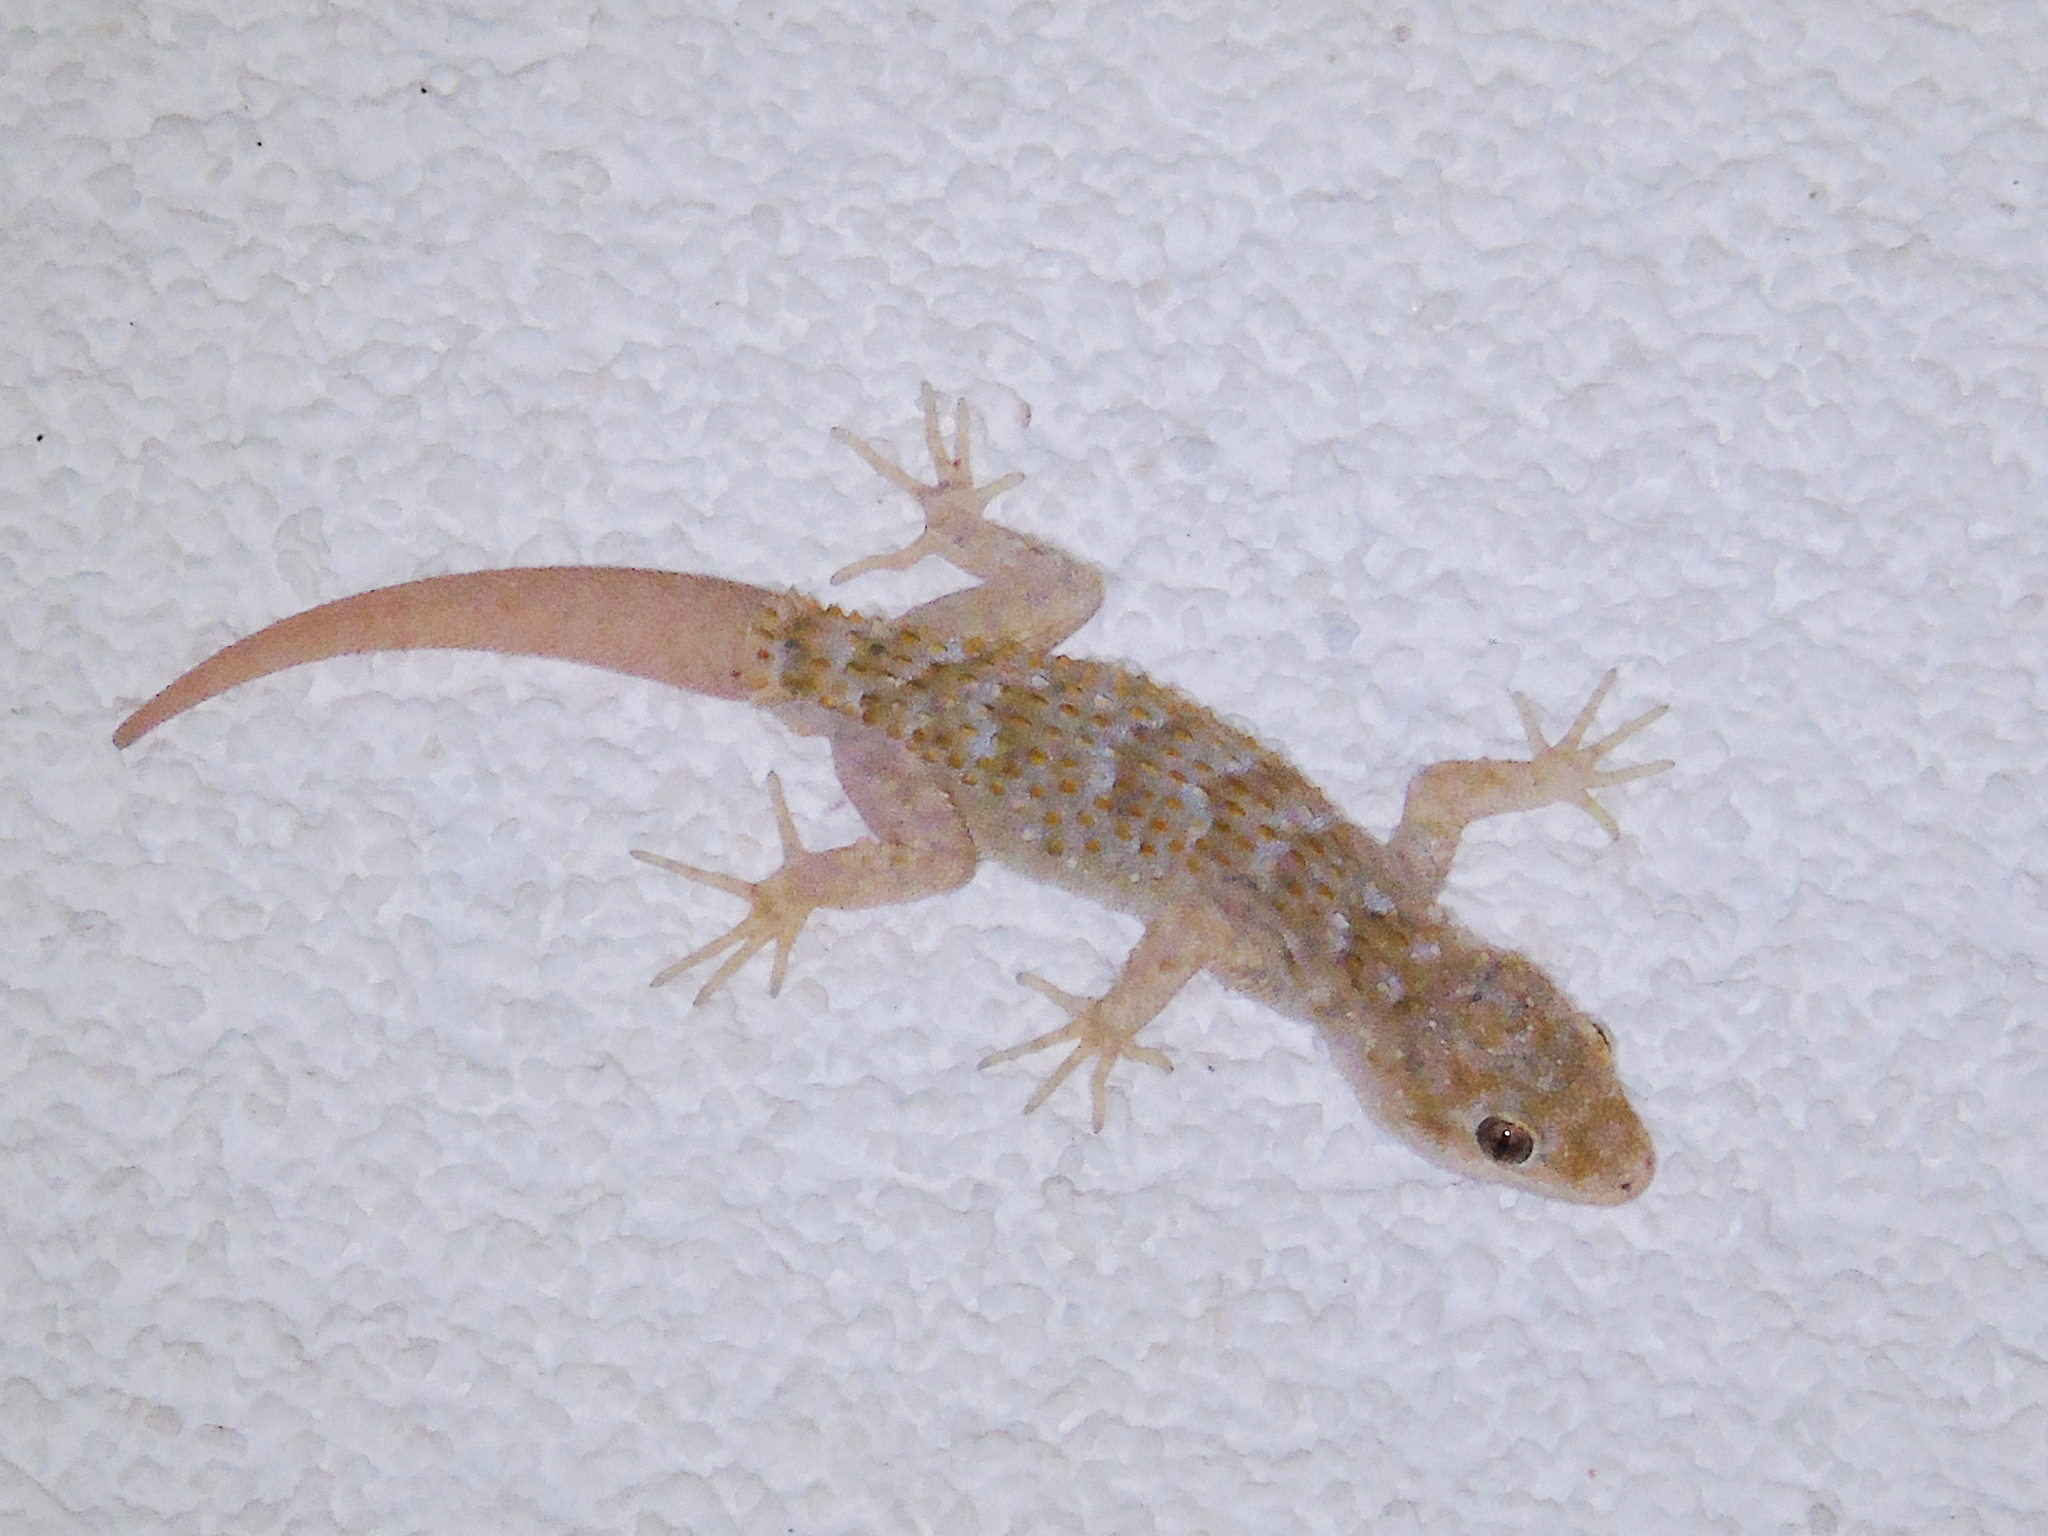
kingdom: Animalia
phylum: Chordata
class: Squamata
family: Gekkonidae
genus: Mediodactylus
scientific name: Mediodactylus kotschyi
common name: Kotschy's gecko
